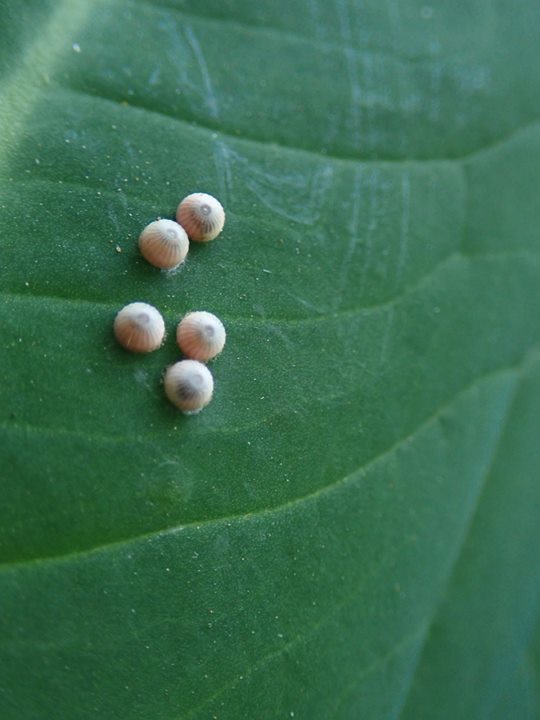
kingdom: Animalia
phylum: Arthropoda
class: Insecta
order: Lepidoptera
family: Hesperiidae
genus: Erionota
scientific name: Erionota torus
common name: Rounded palm-redeye
